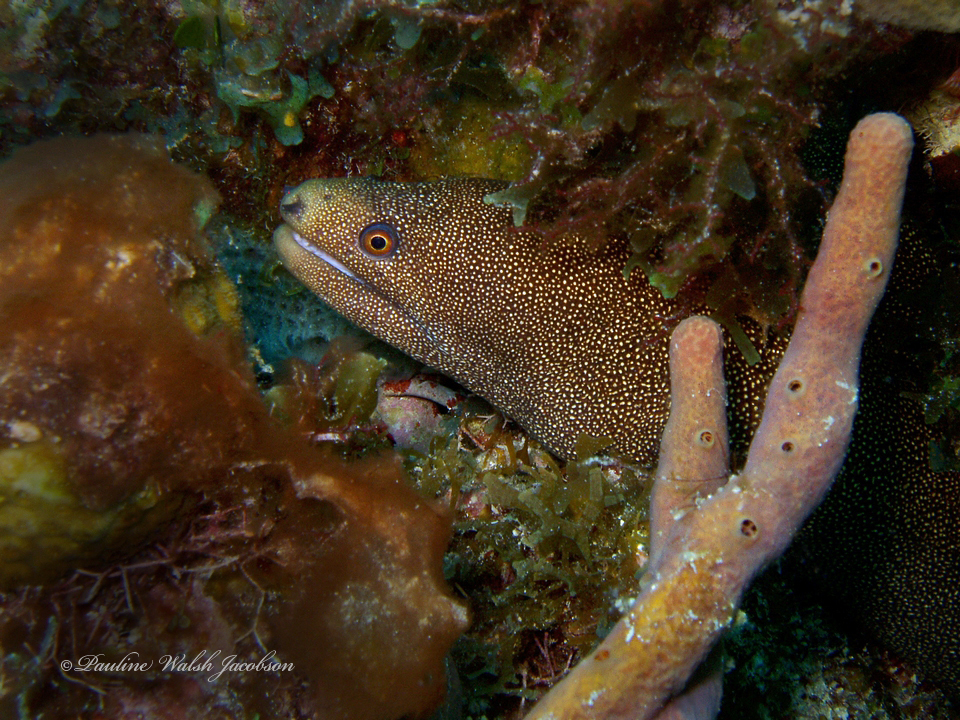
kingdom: Animalia
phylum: Chordata
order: Anguilliformes
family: Muraenidae
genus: Gymnothorax
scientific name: Gymnothorax miliaris
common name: Goldentail moray
